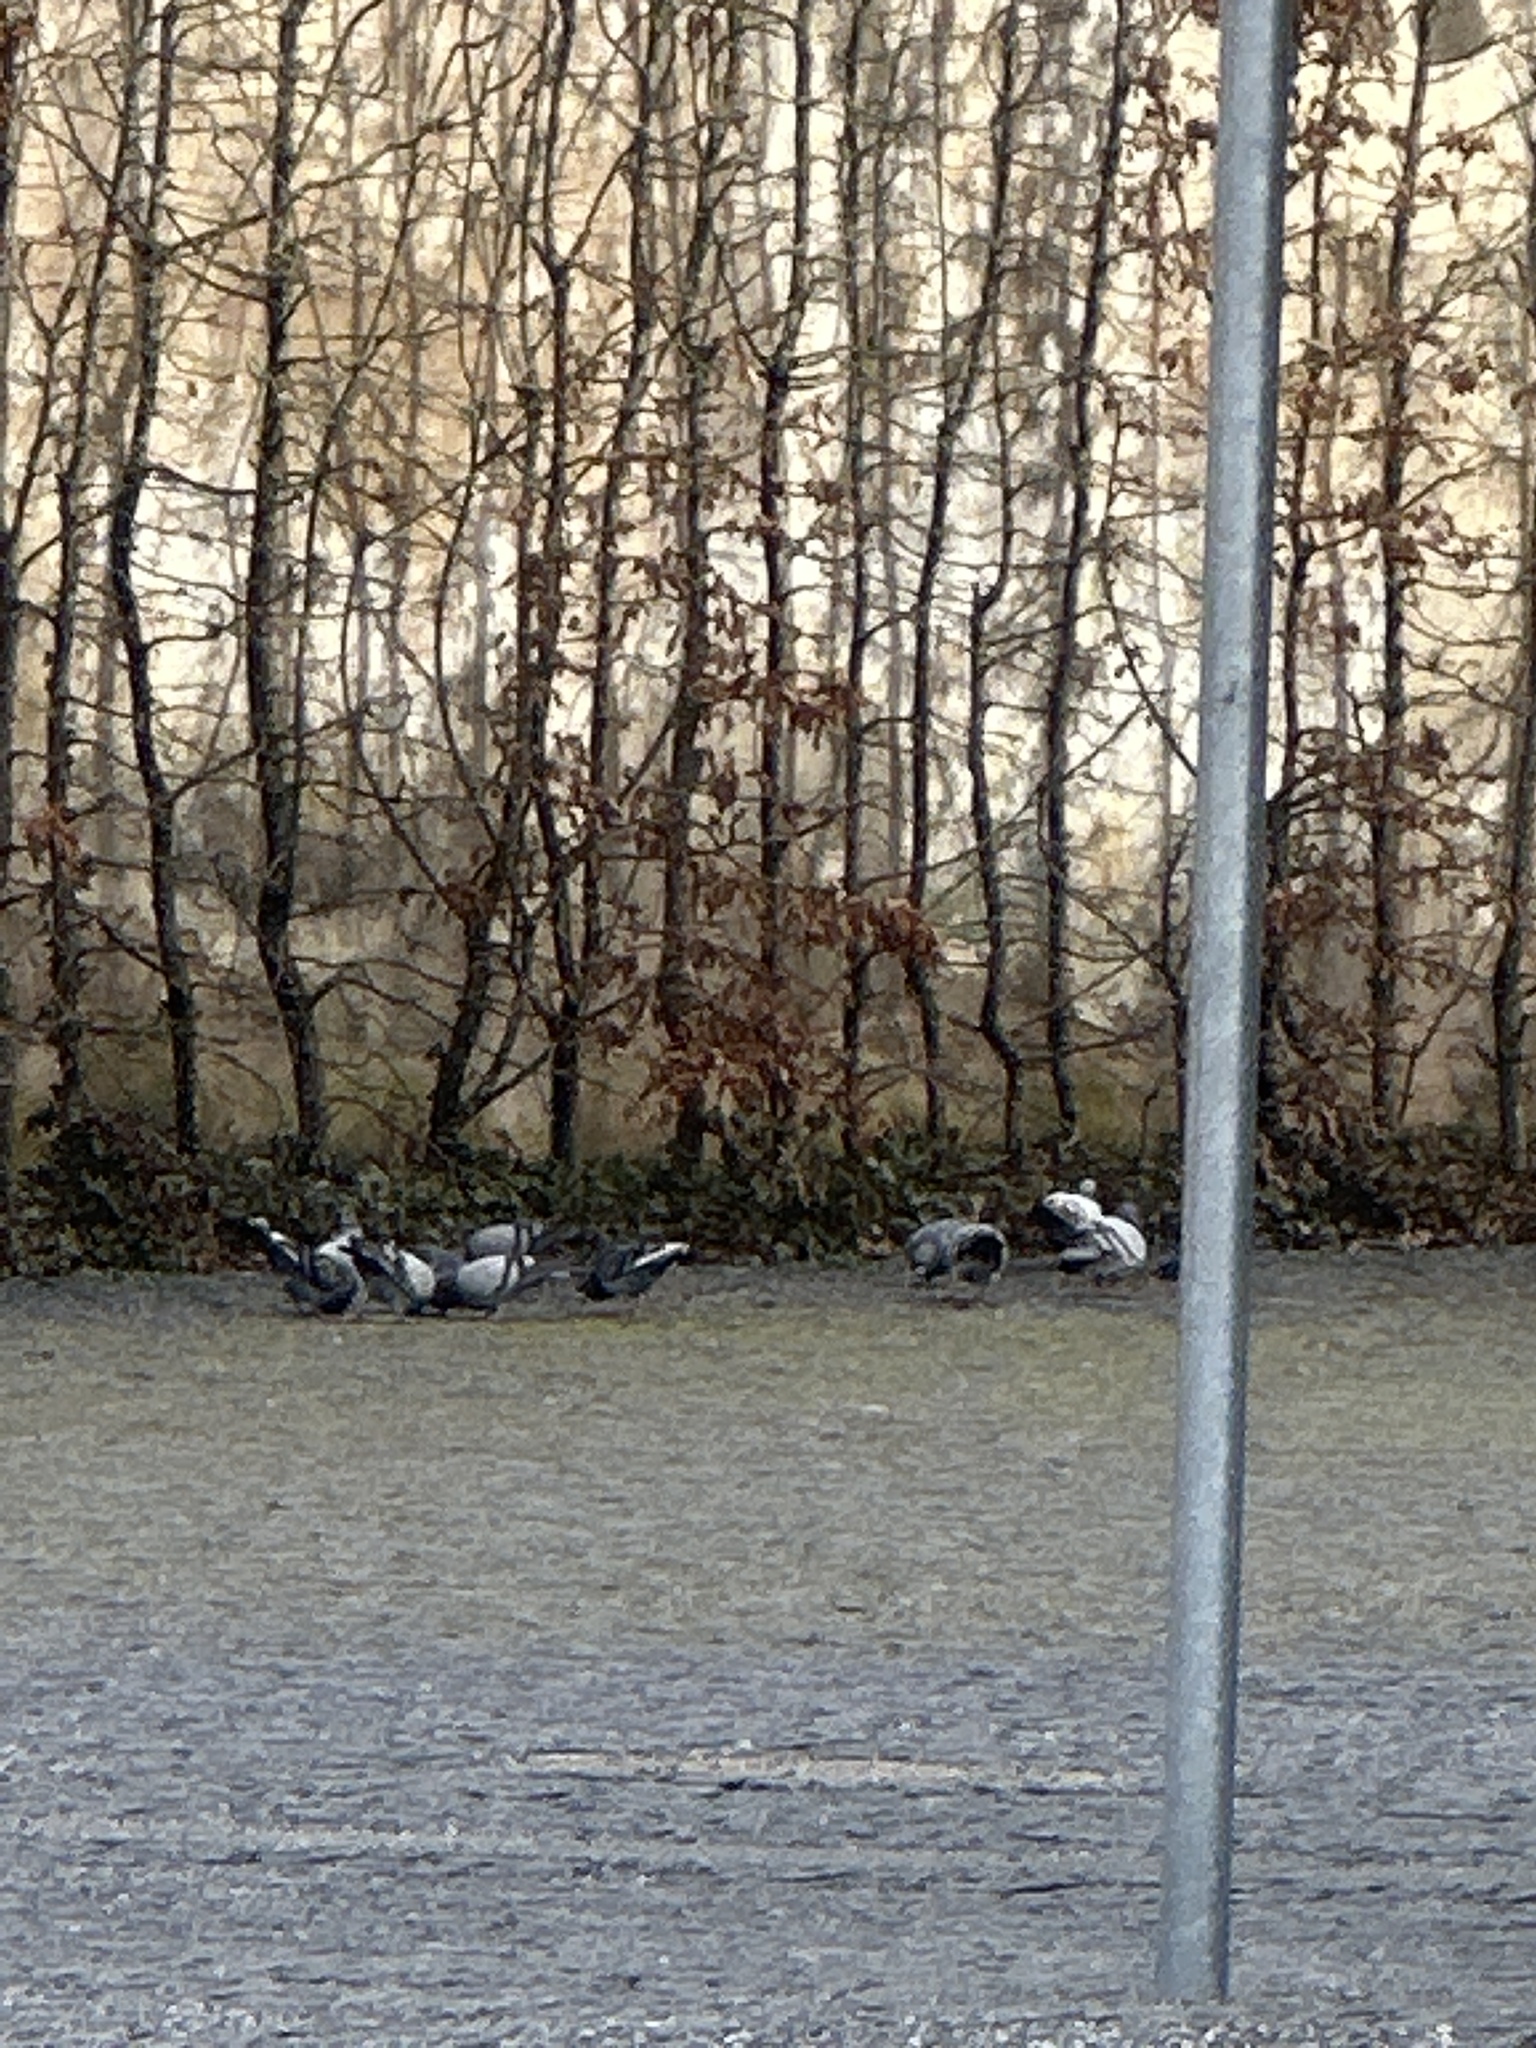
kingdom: Animalia
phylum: Chordata
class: Aves
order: Columbiformes
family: Columbidae
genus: Columba
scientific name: Columba livia
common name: Rock pigeon
